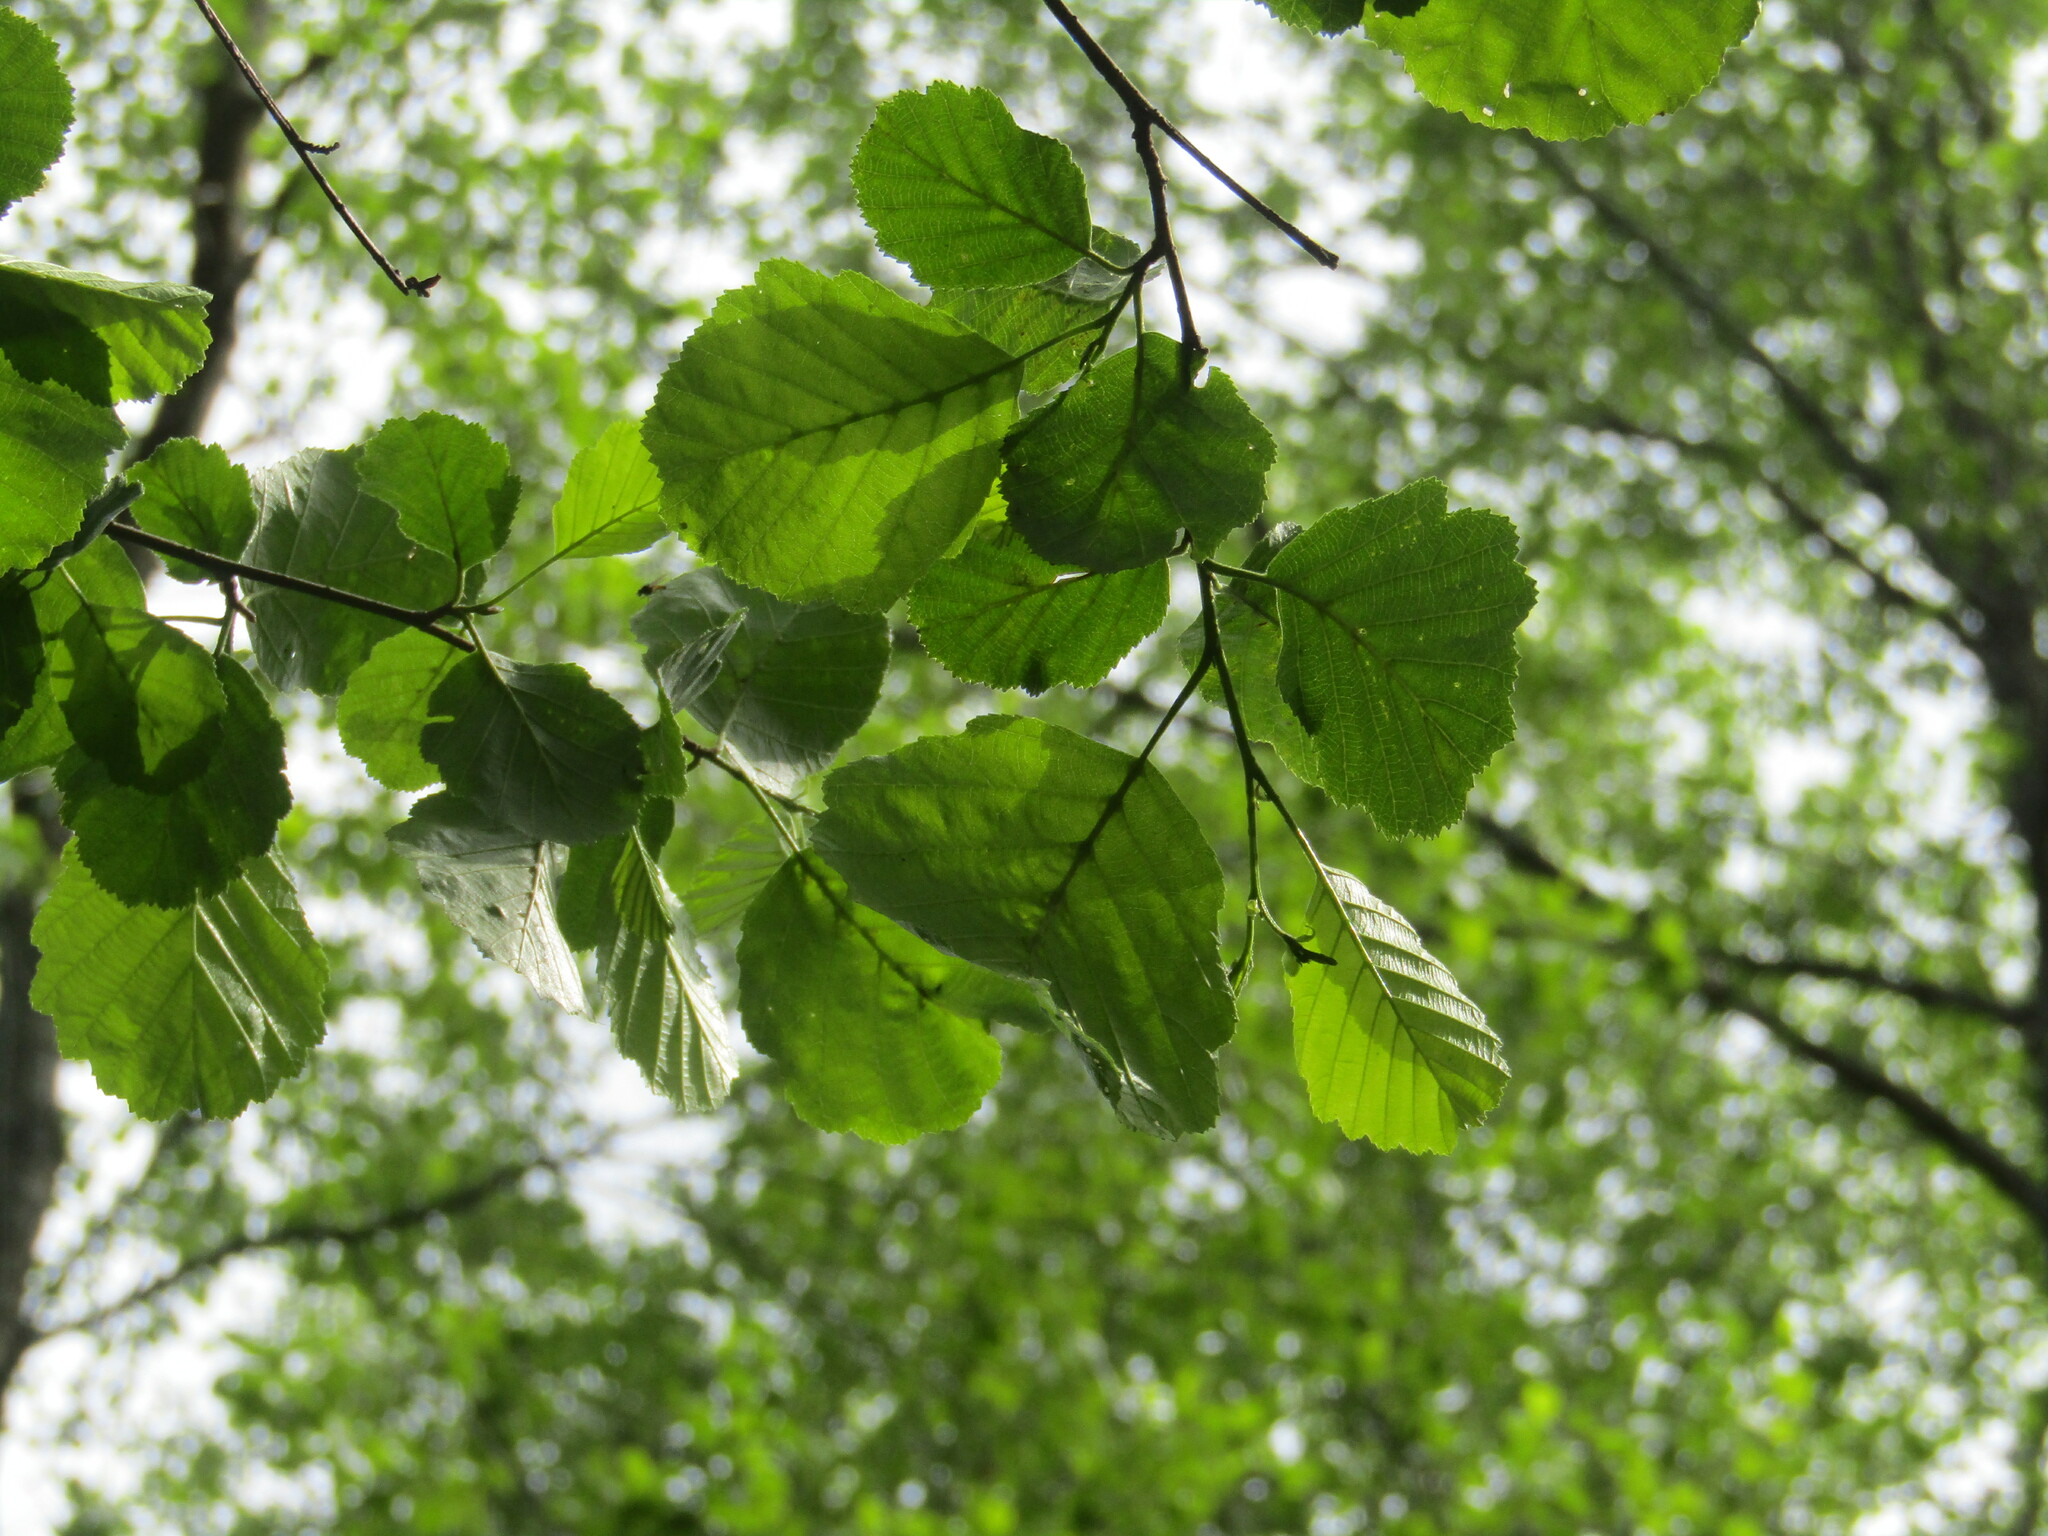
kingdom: Plantae
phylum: Tracheophyta
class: Magnoliopsida
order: Fagales
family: Betulaceae
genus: Alnus
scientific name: Alnus glutinosa
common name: Black alder
